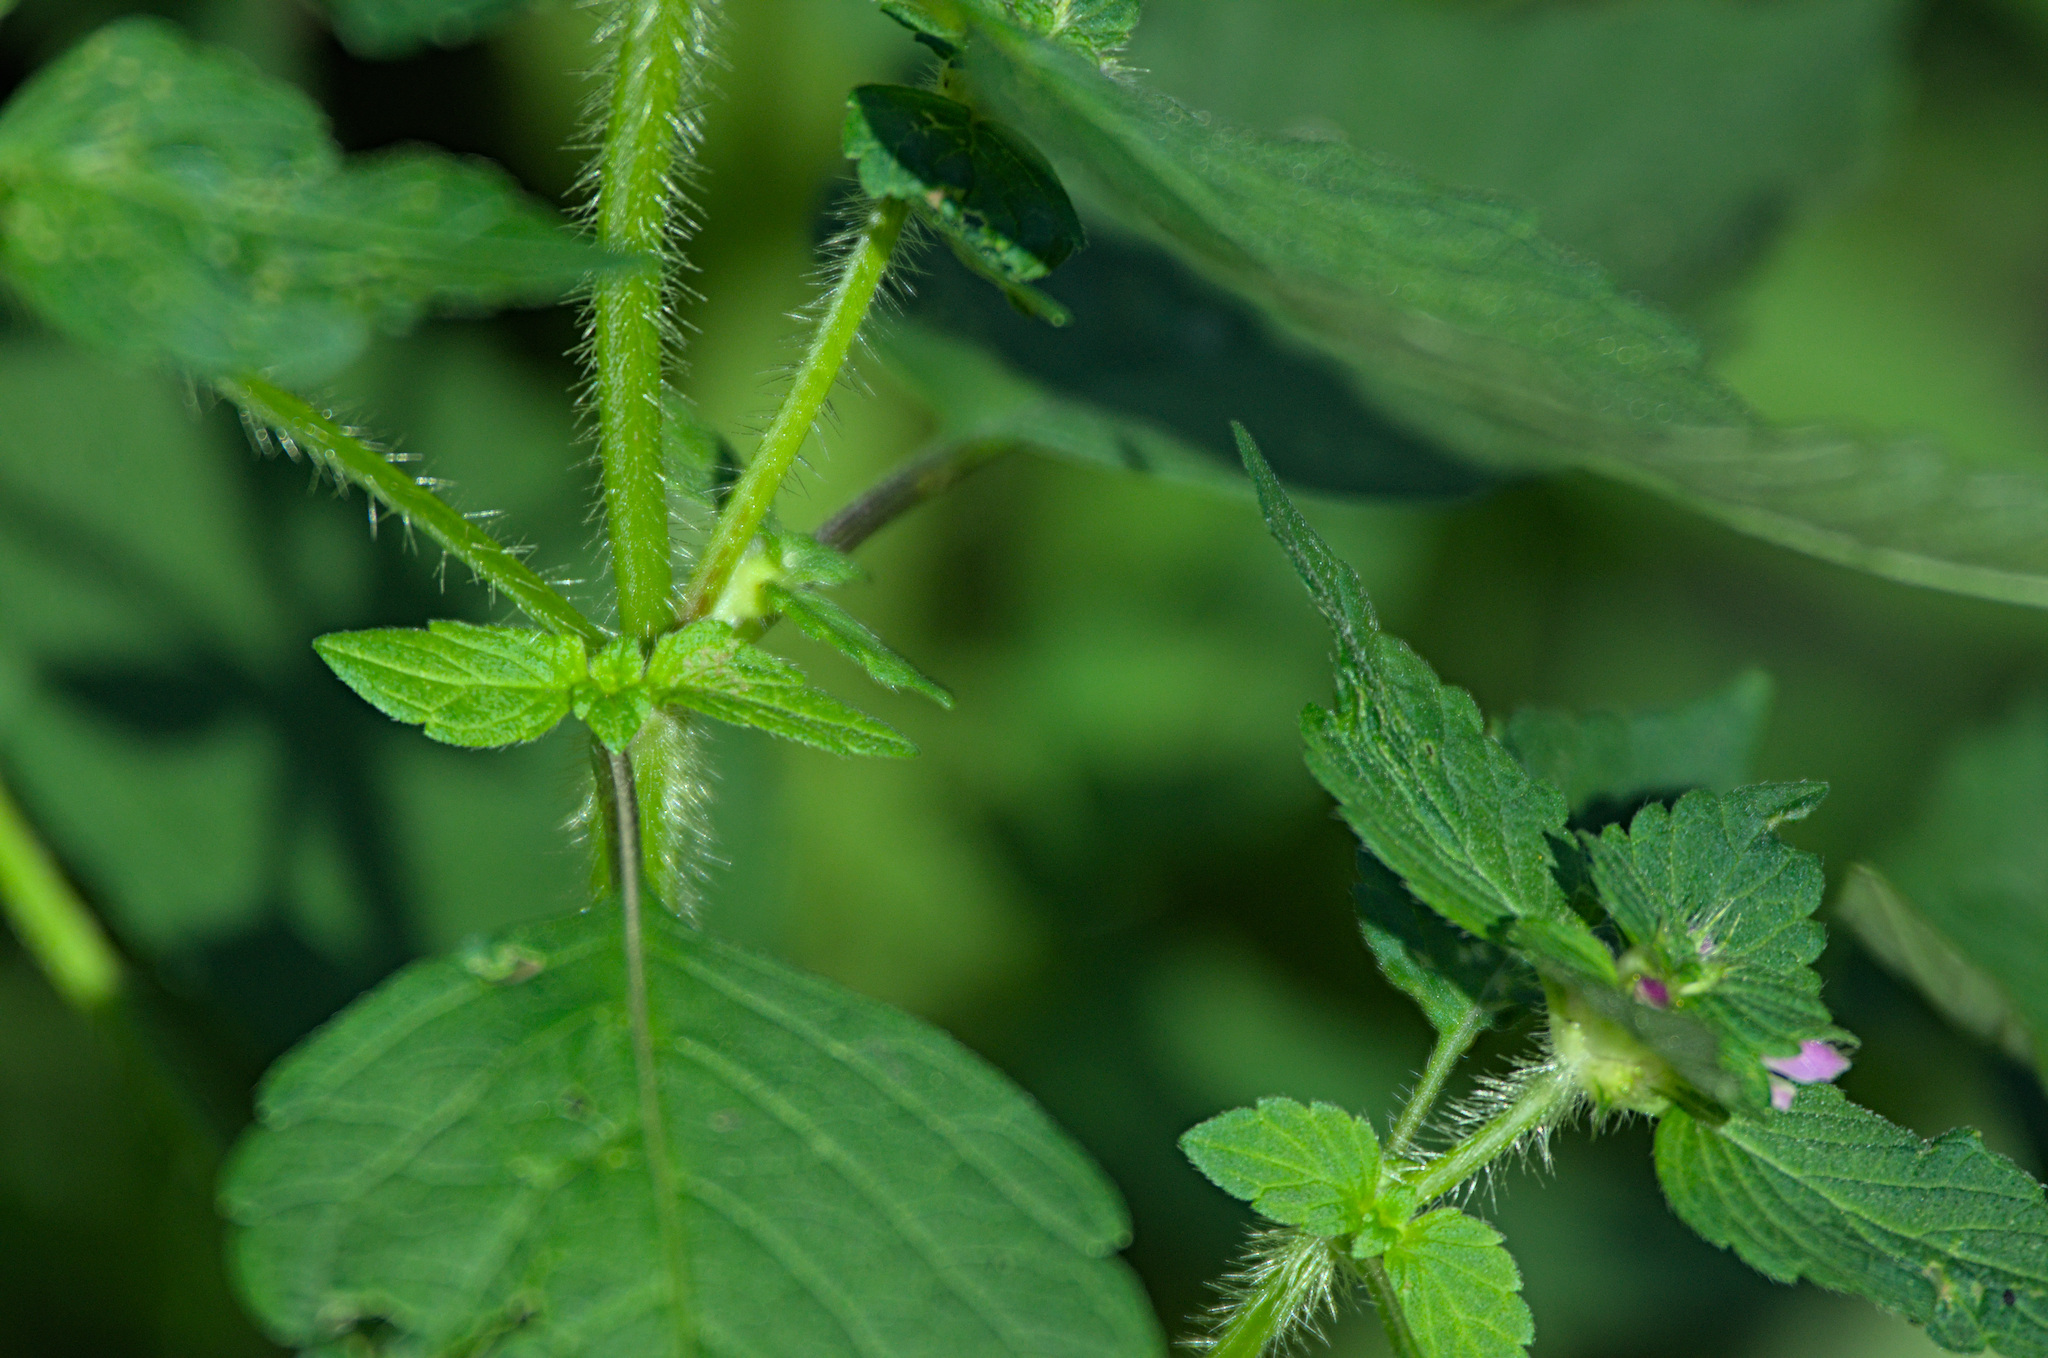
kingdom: Plantae
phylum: Tracheophyta
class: Magnoliopsida
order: Lamiales
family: Lamiaceae
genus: Galeopsis
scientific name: Galeopsis bifida
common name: Bifid hemp-nettle
